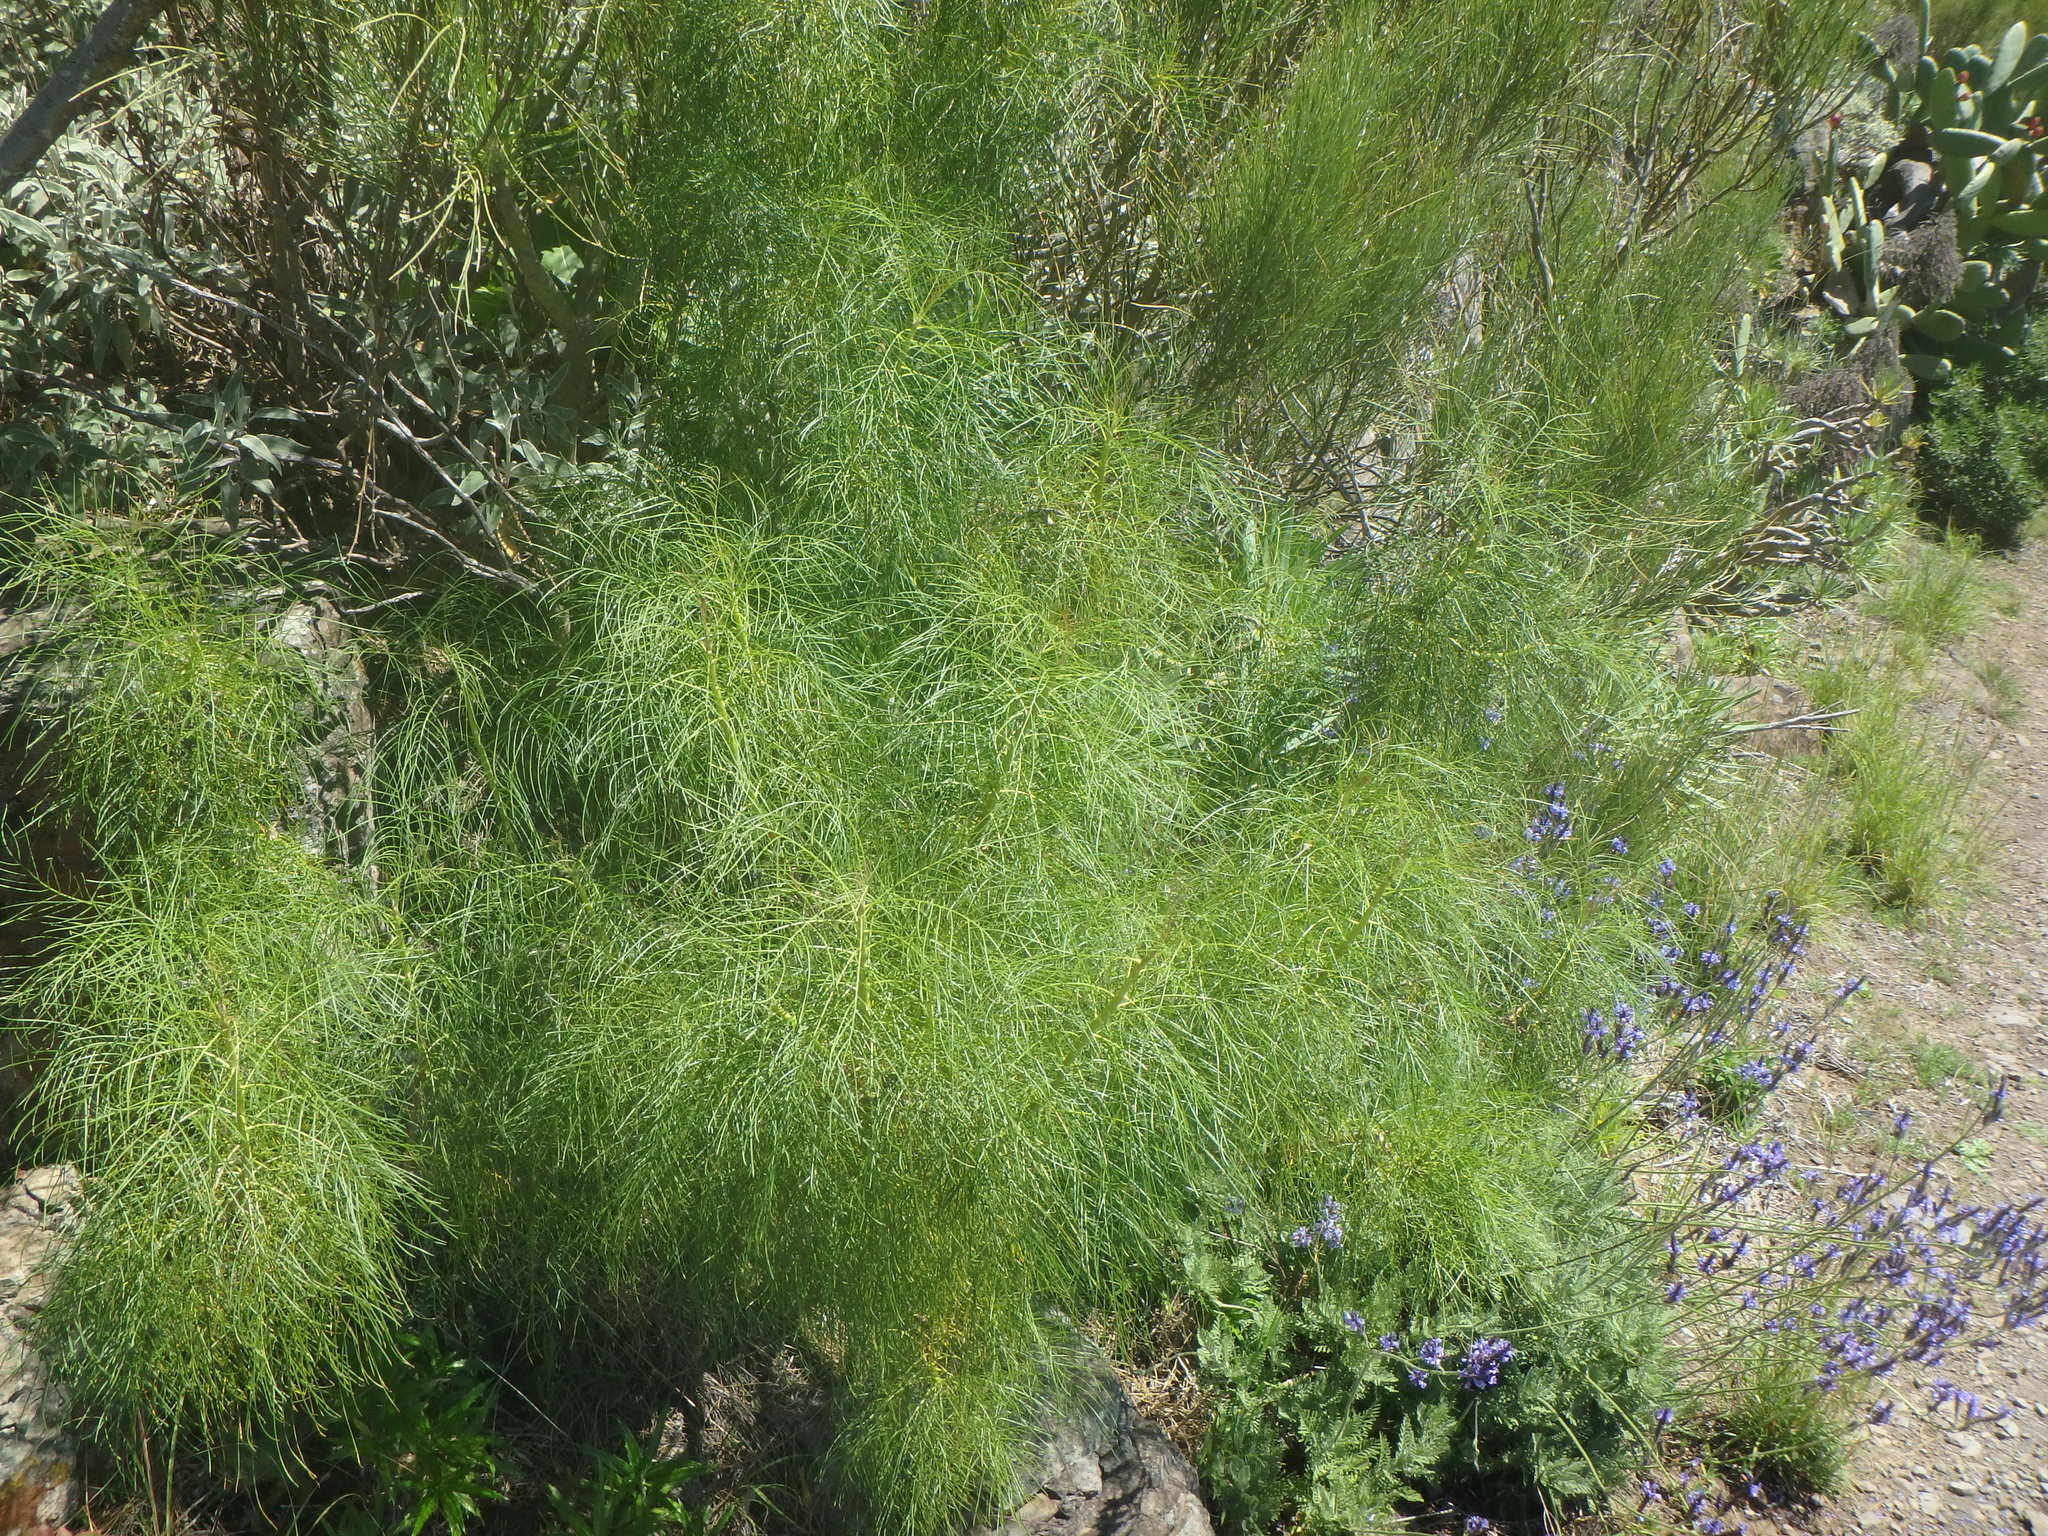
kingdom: Plantae
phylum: Tracheophyta
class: Magnoliopsida
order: Asterales
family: Asteraceae
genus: Sonchus
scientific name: Sonchus leptocephalus
